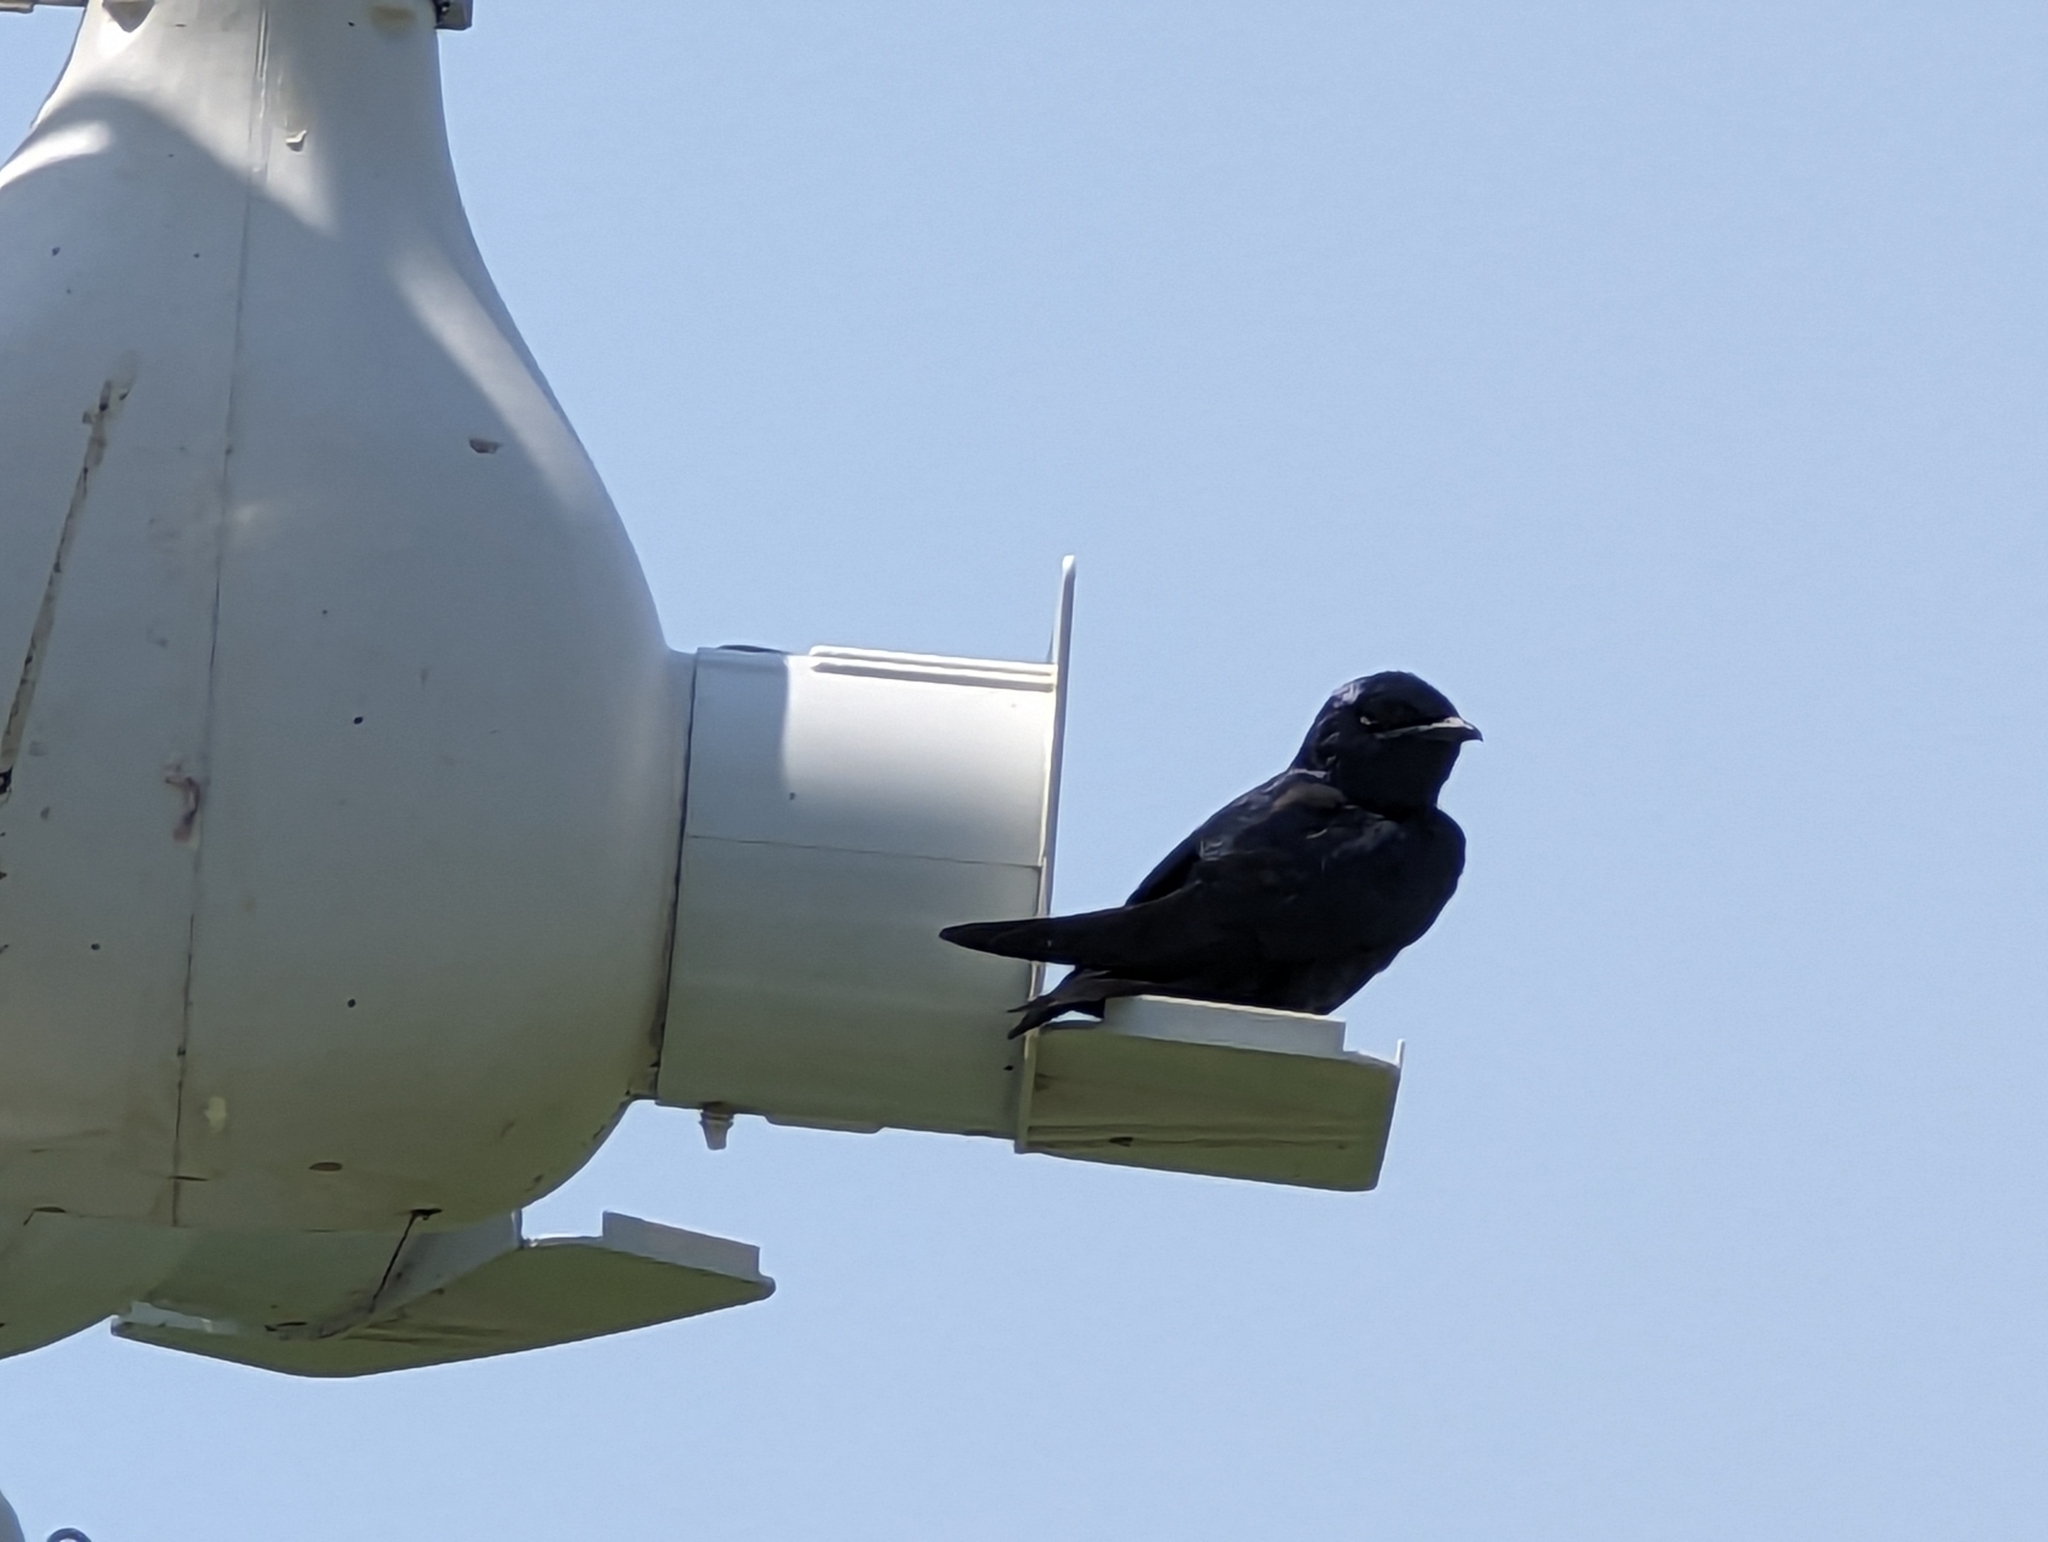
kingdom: Animalia
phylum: Chordata
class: Aves
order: Passeriformes
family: Hirundinidae
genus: Progne
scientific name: Progne subis
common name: Purple martin
